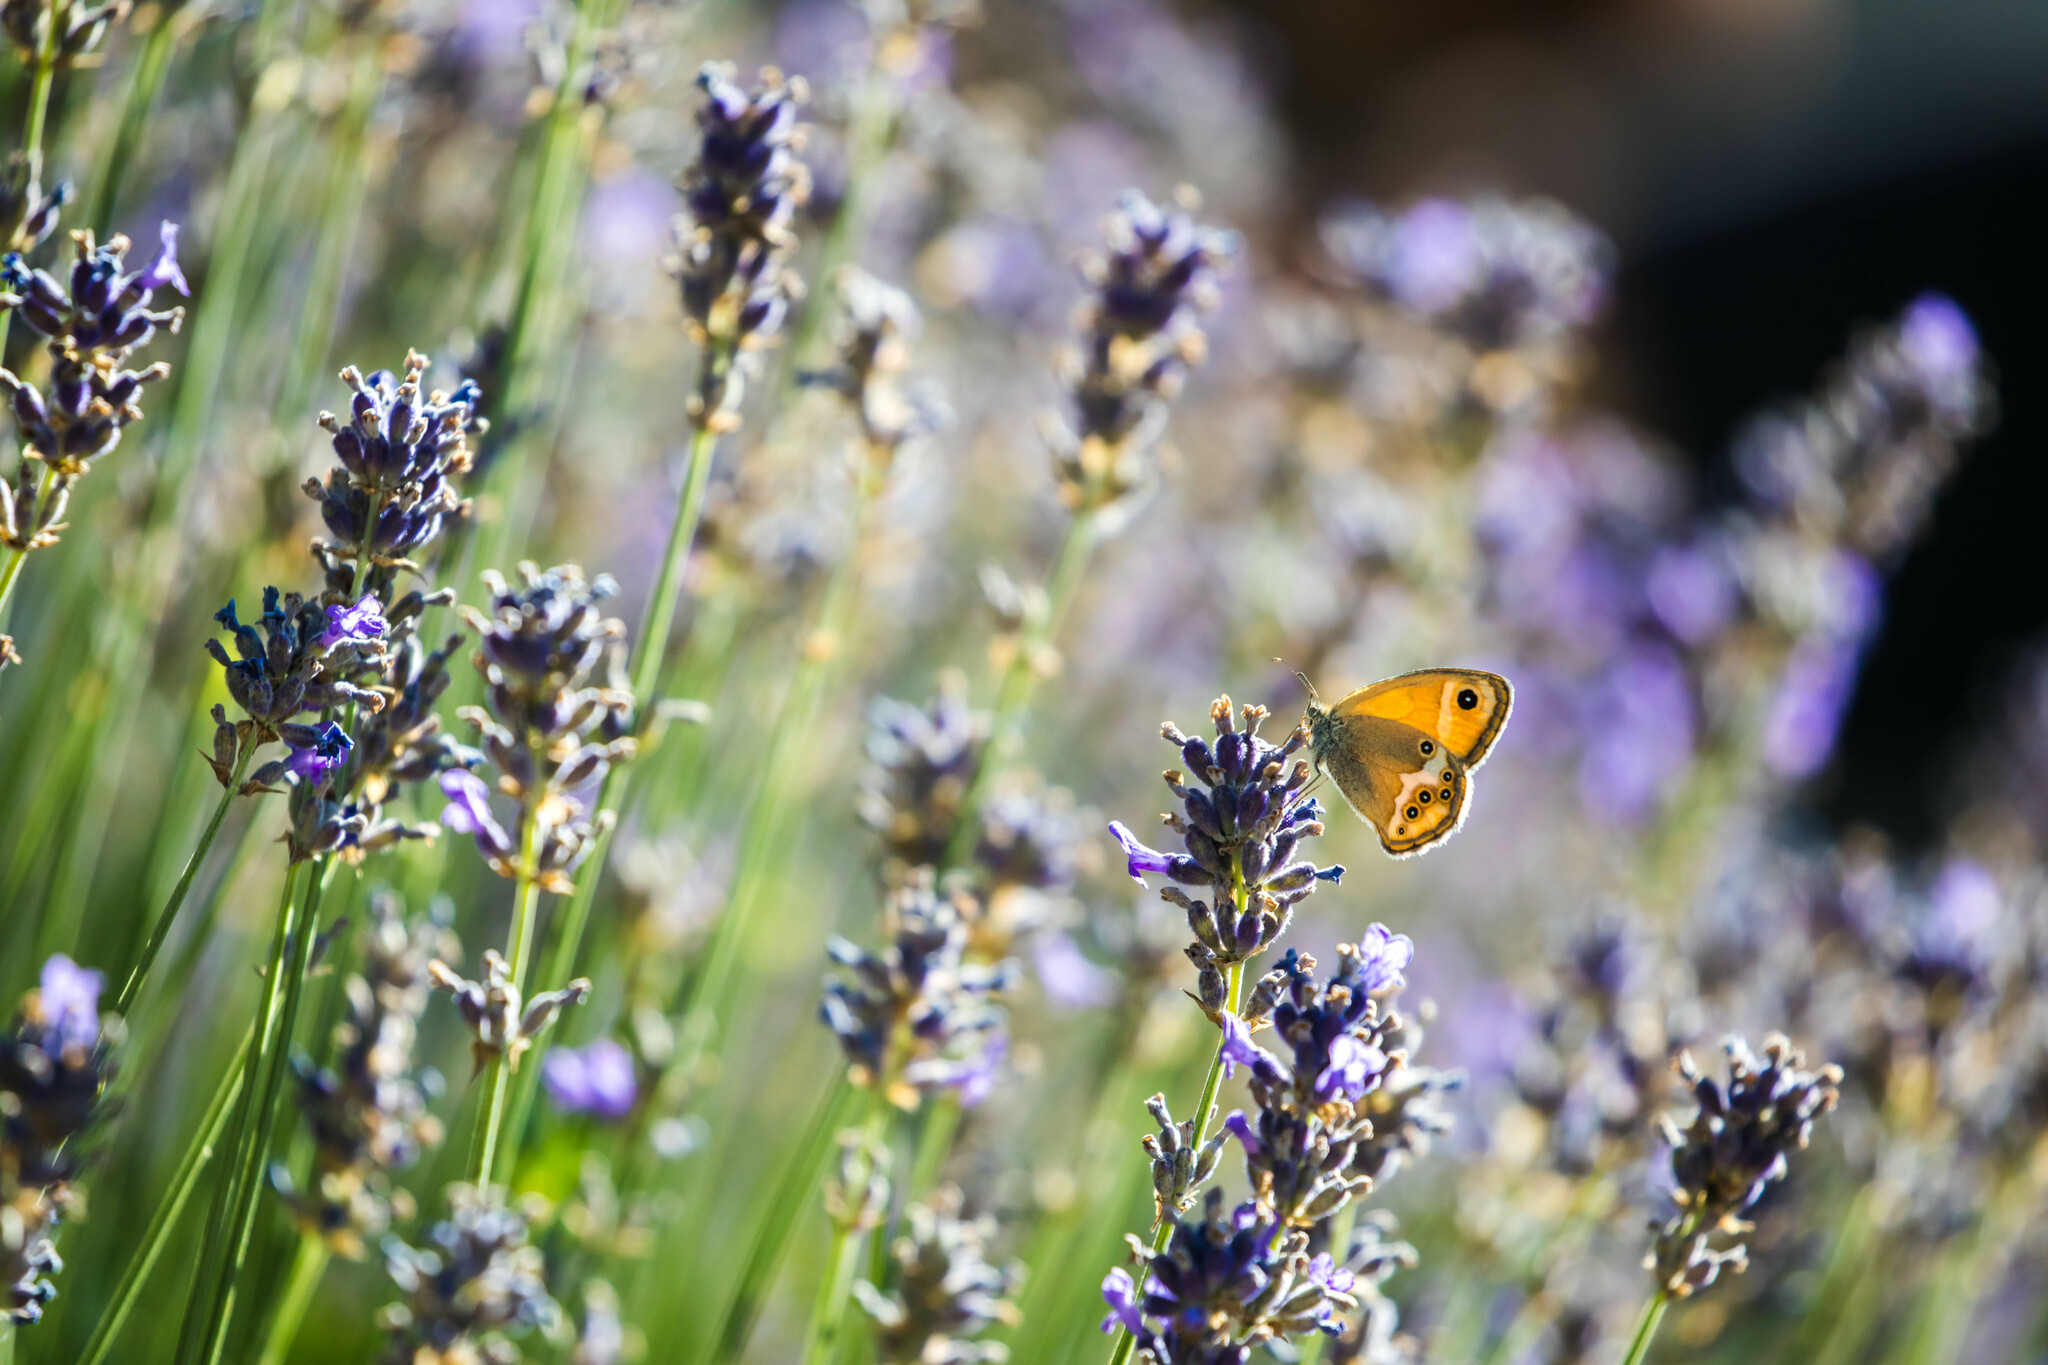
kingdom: Animalia
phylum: Arthropoda
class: Insecta
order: Lepidoptera
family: Nymphalidae
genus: Coenonympha
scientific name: Coenonympha dorus
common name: Dusky heath
